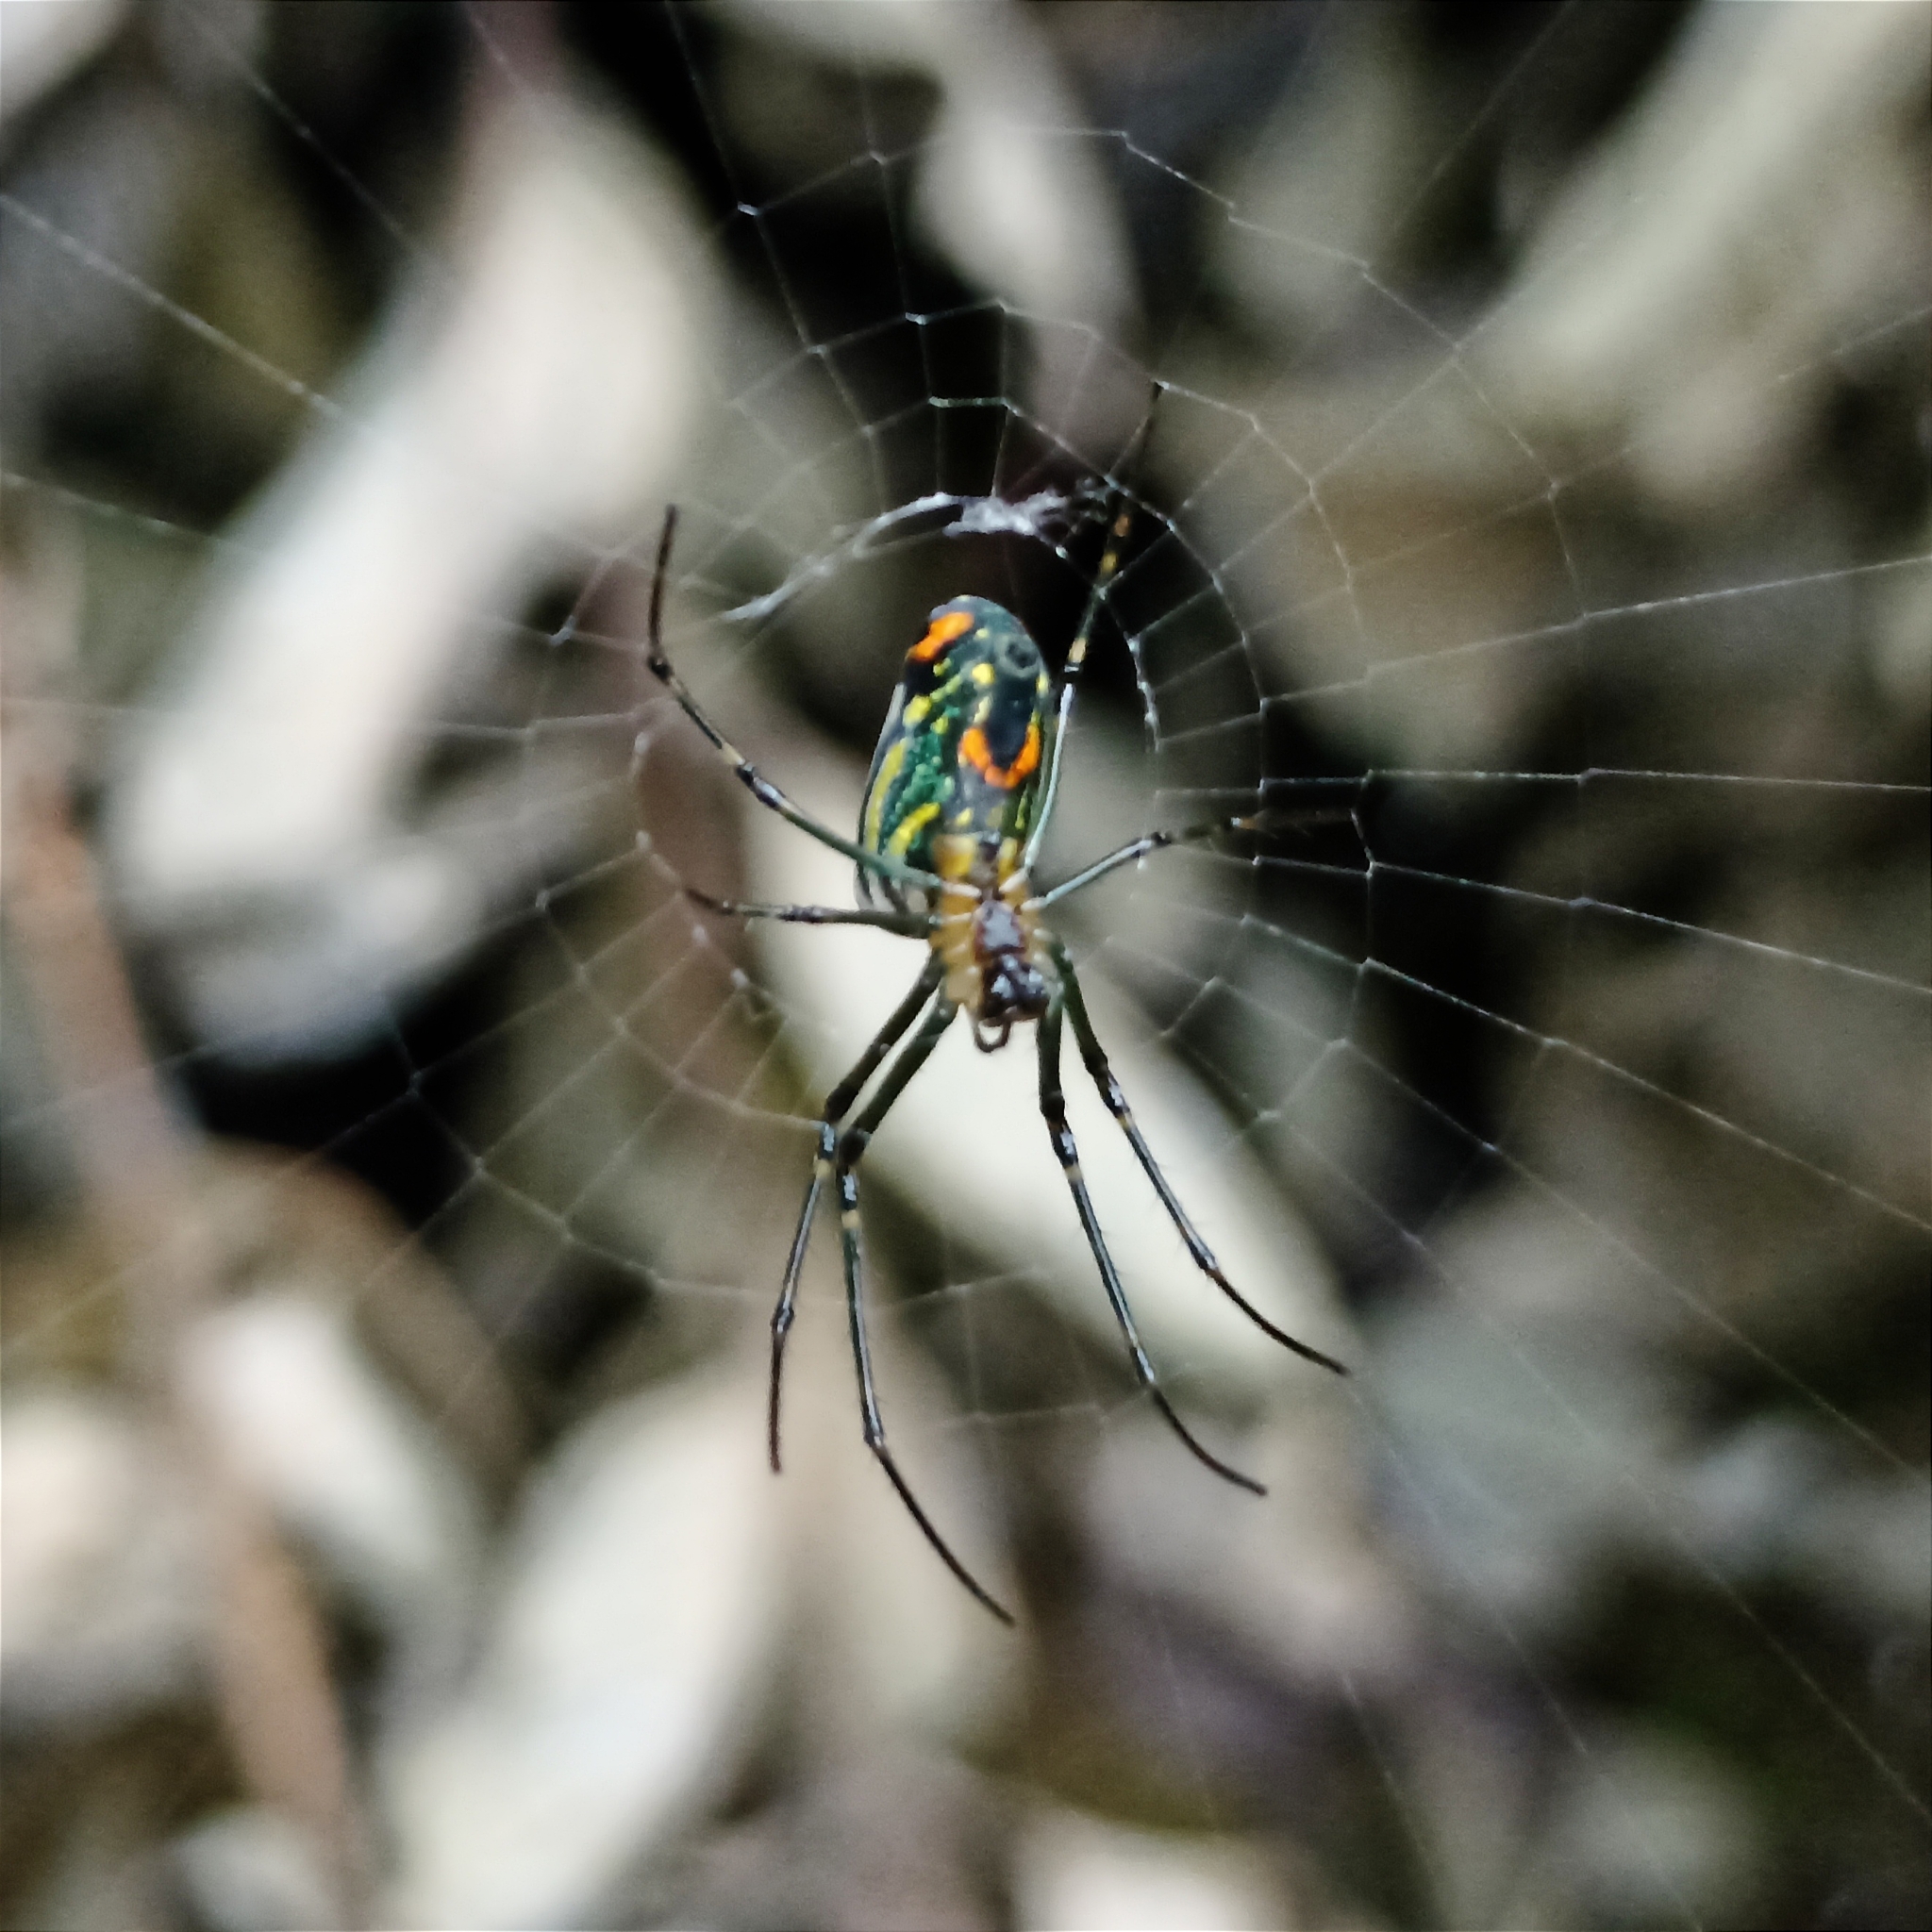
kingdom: Animalia
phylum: Arthropoda
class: Arachnida
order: Araneae
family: Tetragnathidae
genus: Leucauge
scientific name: Leucauge mariana
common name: Longjawed orb weavers
